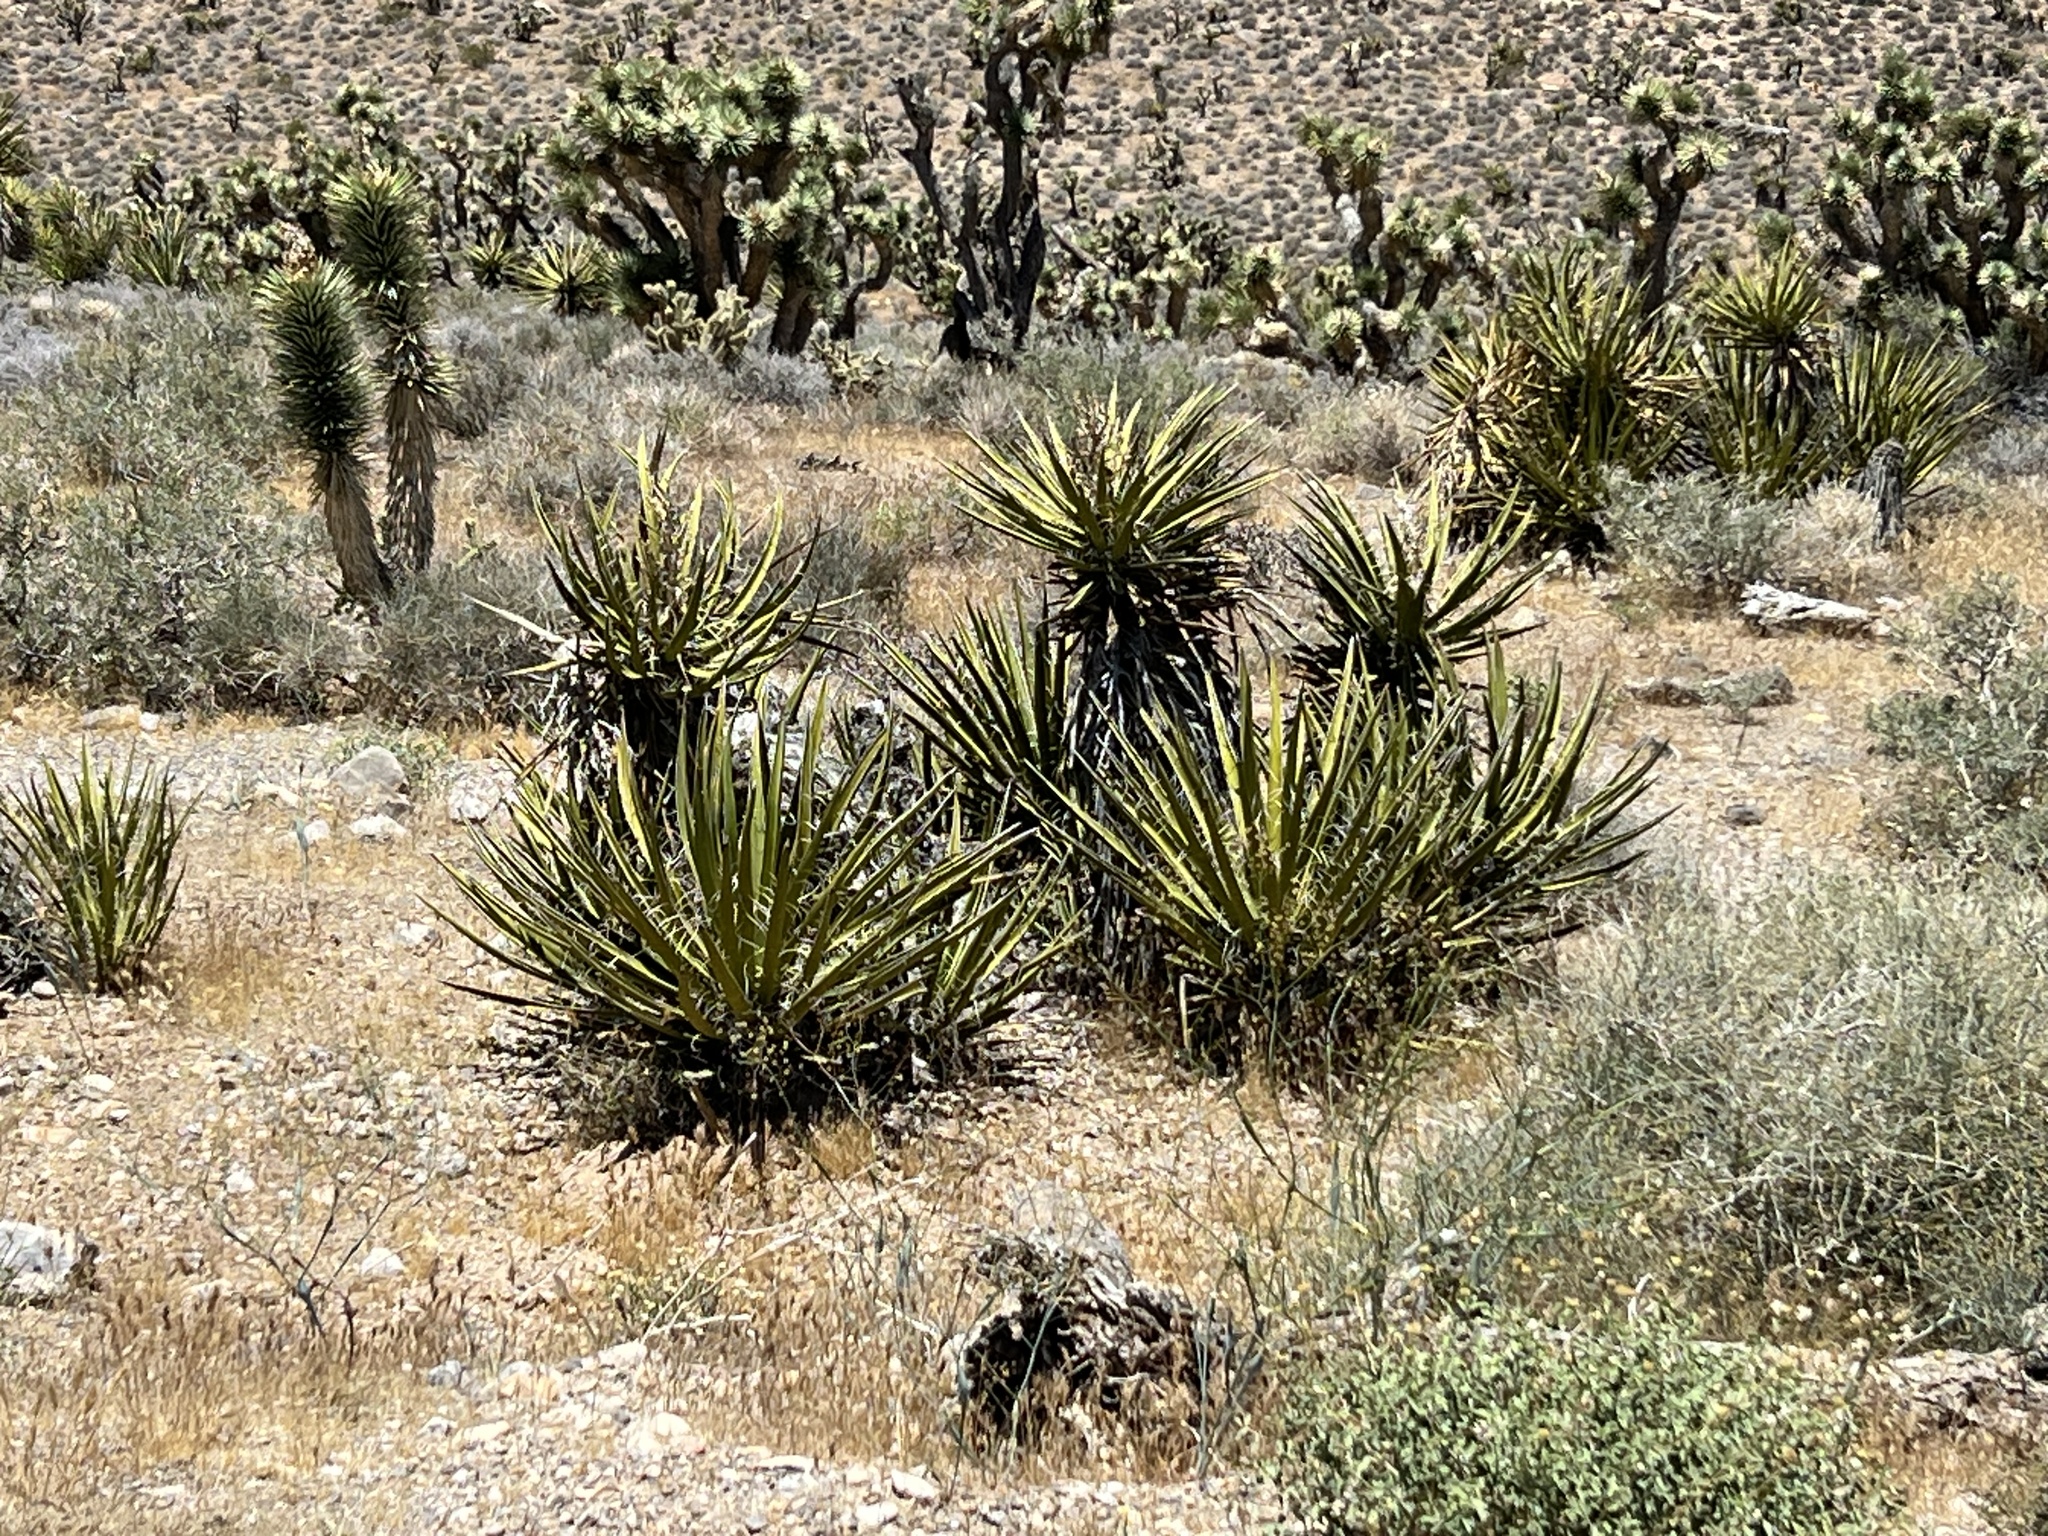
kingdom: Plantae
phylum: Tracheophyta
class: Liliopsida
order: Asparagales
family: Asparagaceae
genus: Yucca
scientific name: Yucca schidigera
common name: Mojave yucca
